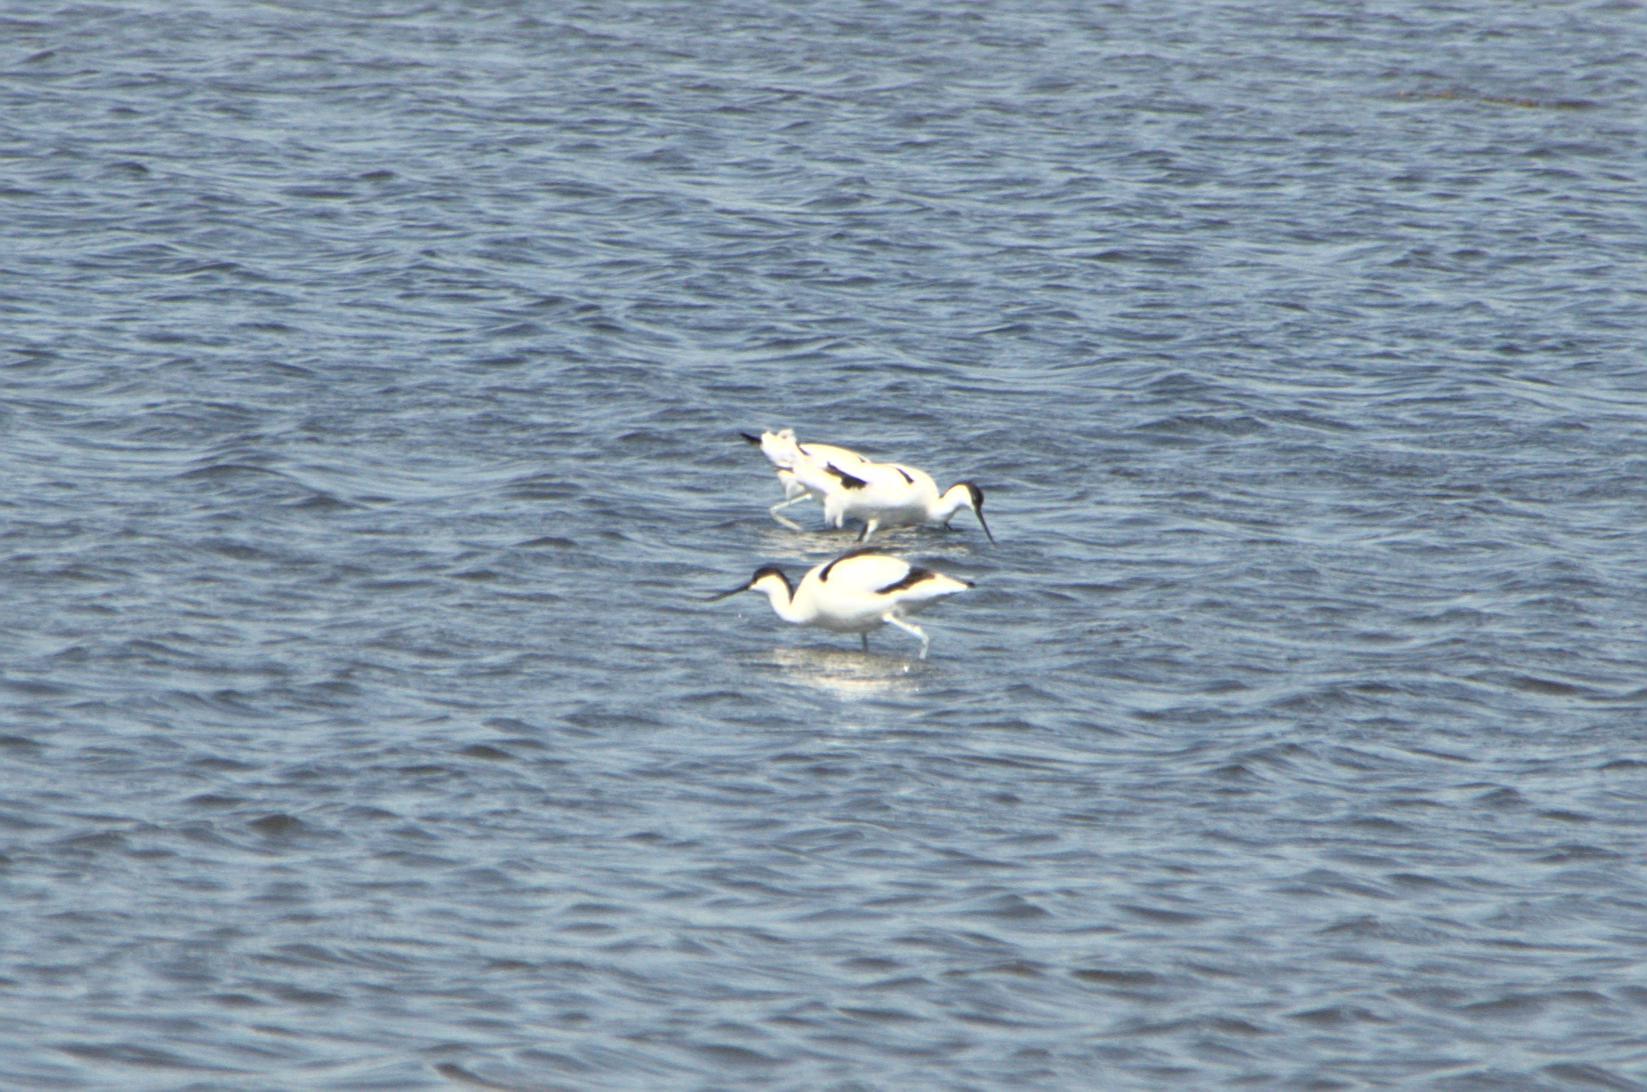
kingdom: Animalia
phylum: Chordata
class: Aves
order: Charadriiformes
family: Recurvirostridae
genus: Recurvirostra
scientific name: Recurvirostra avosetta
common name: Pied avocet
